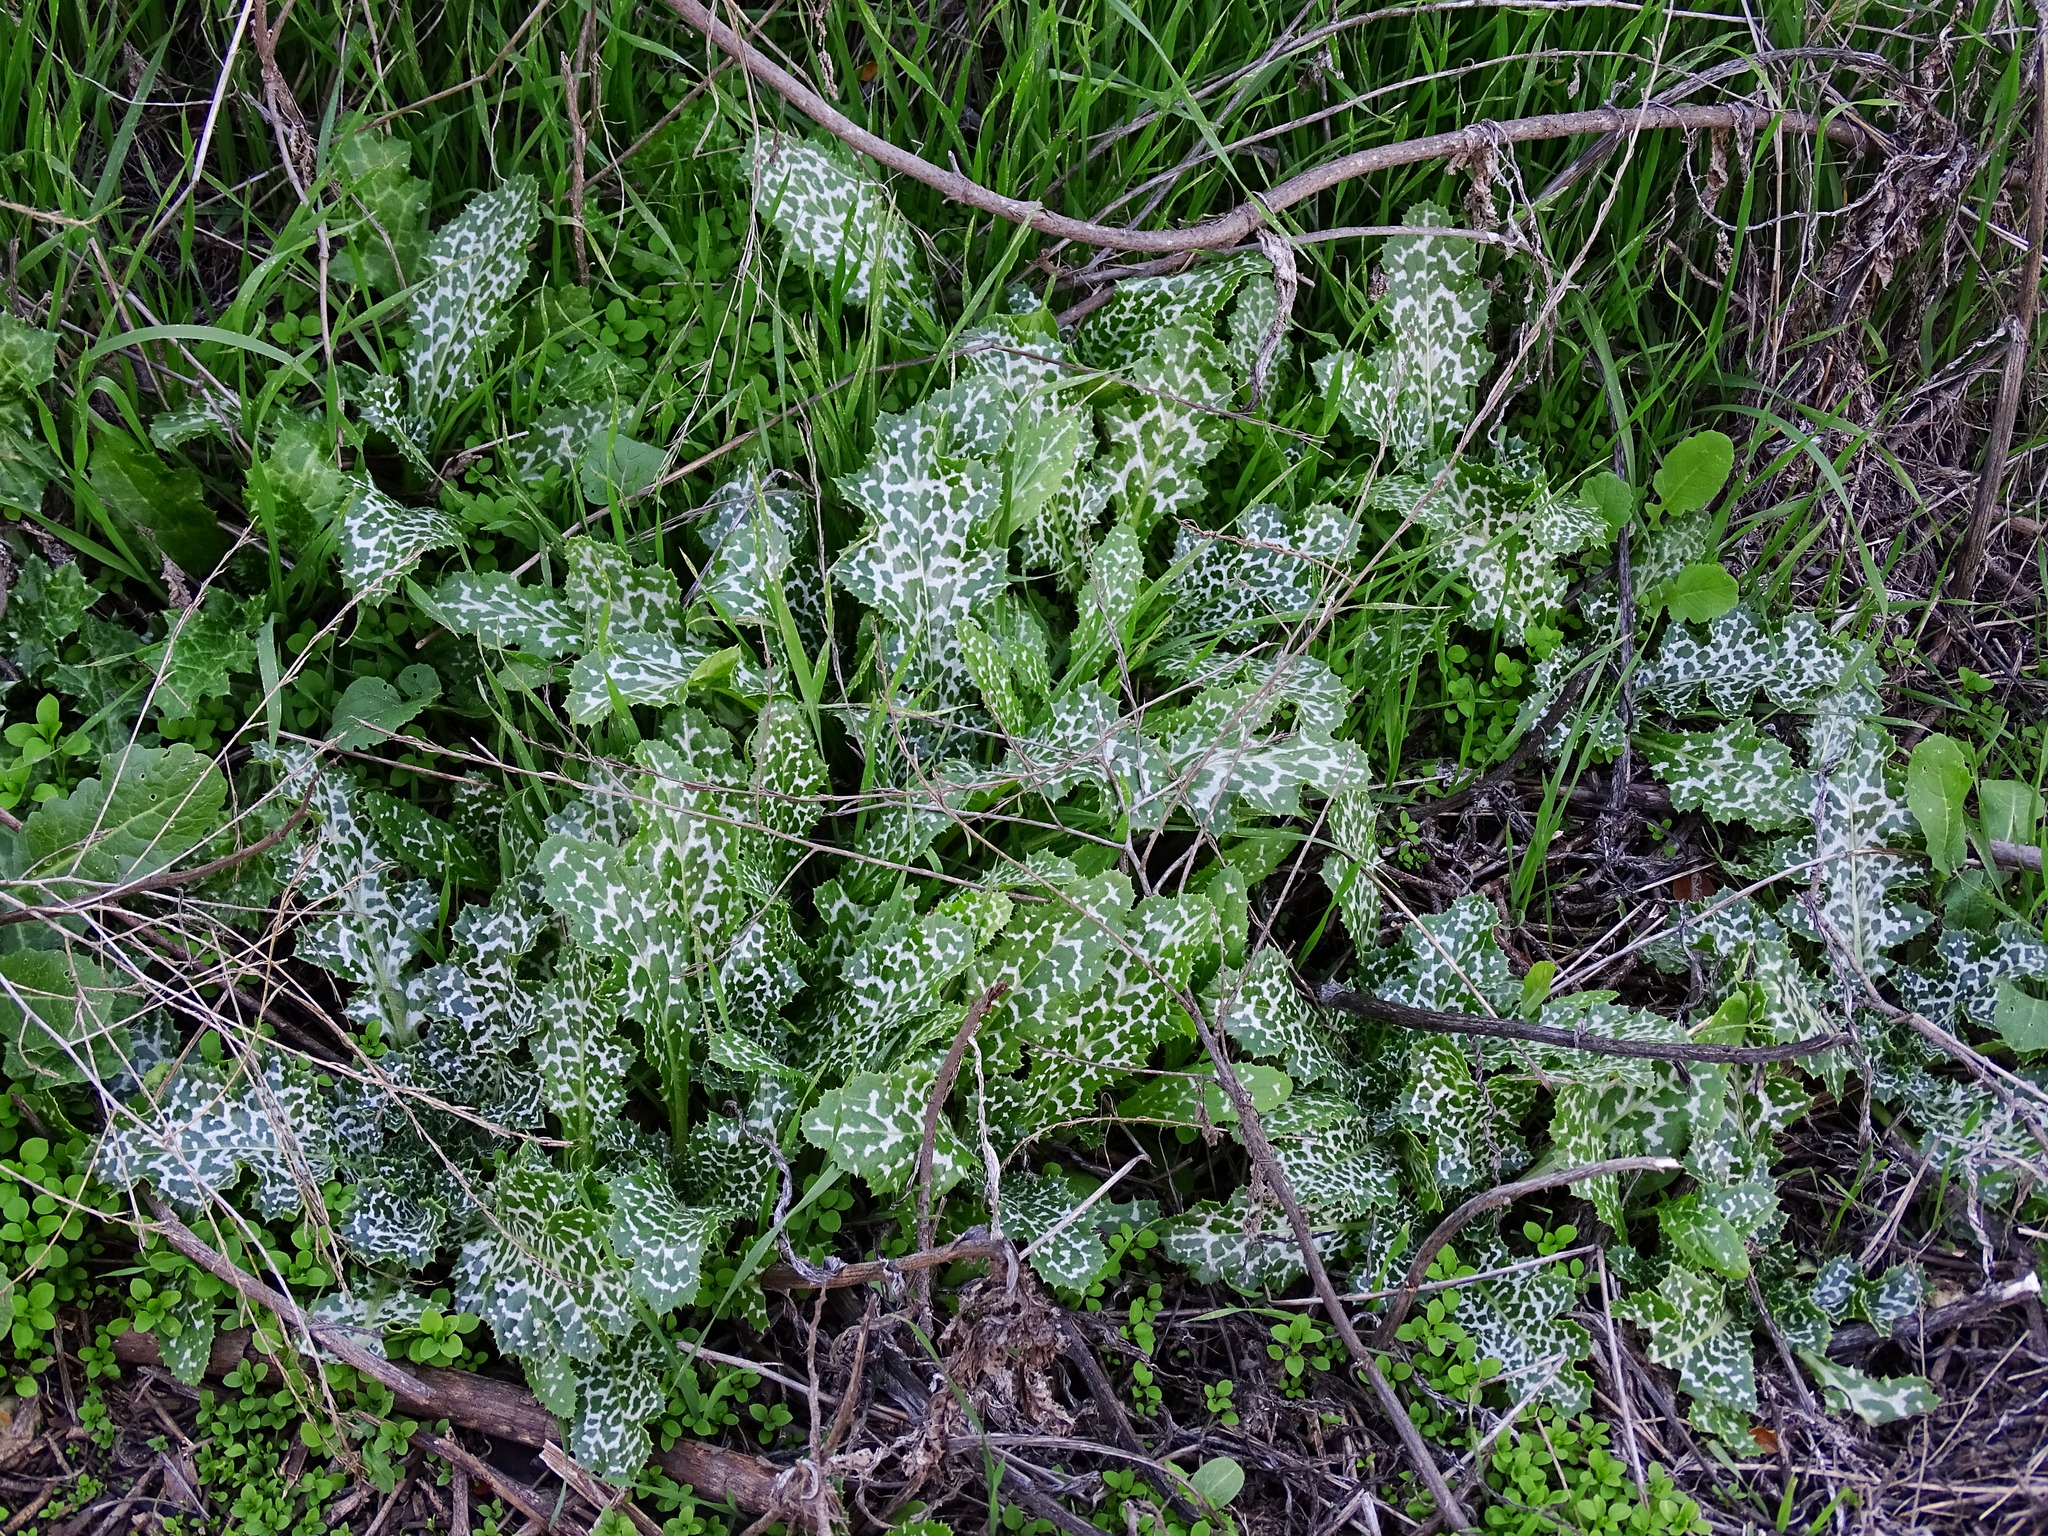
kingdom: Plantae
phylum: Tracheophyta
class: Magnoliopsida
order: Asterales
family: Asteraceae
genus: Silybum
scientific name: Silybum marianum
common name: Milk thistle
